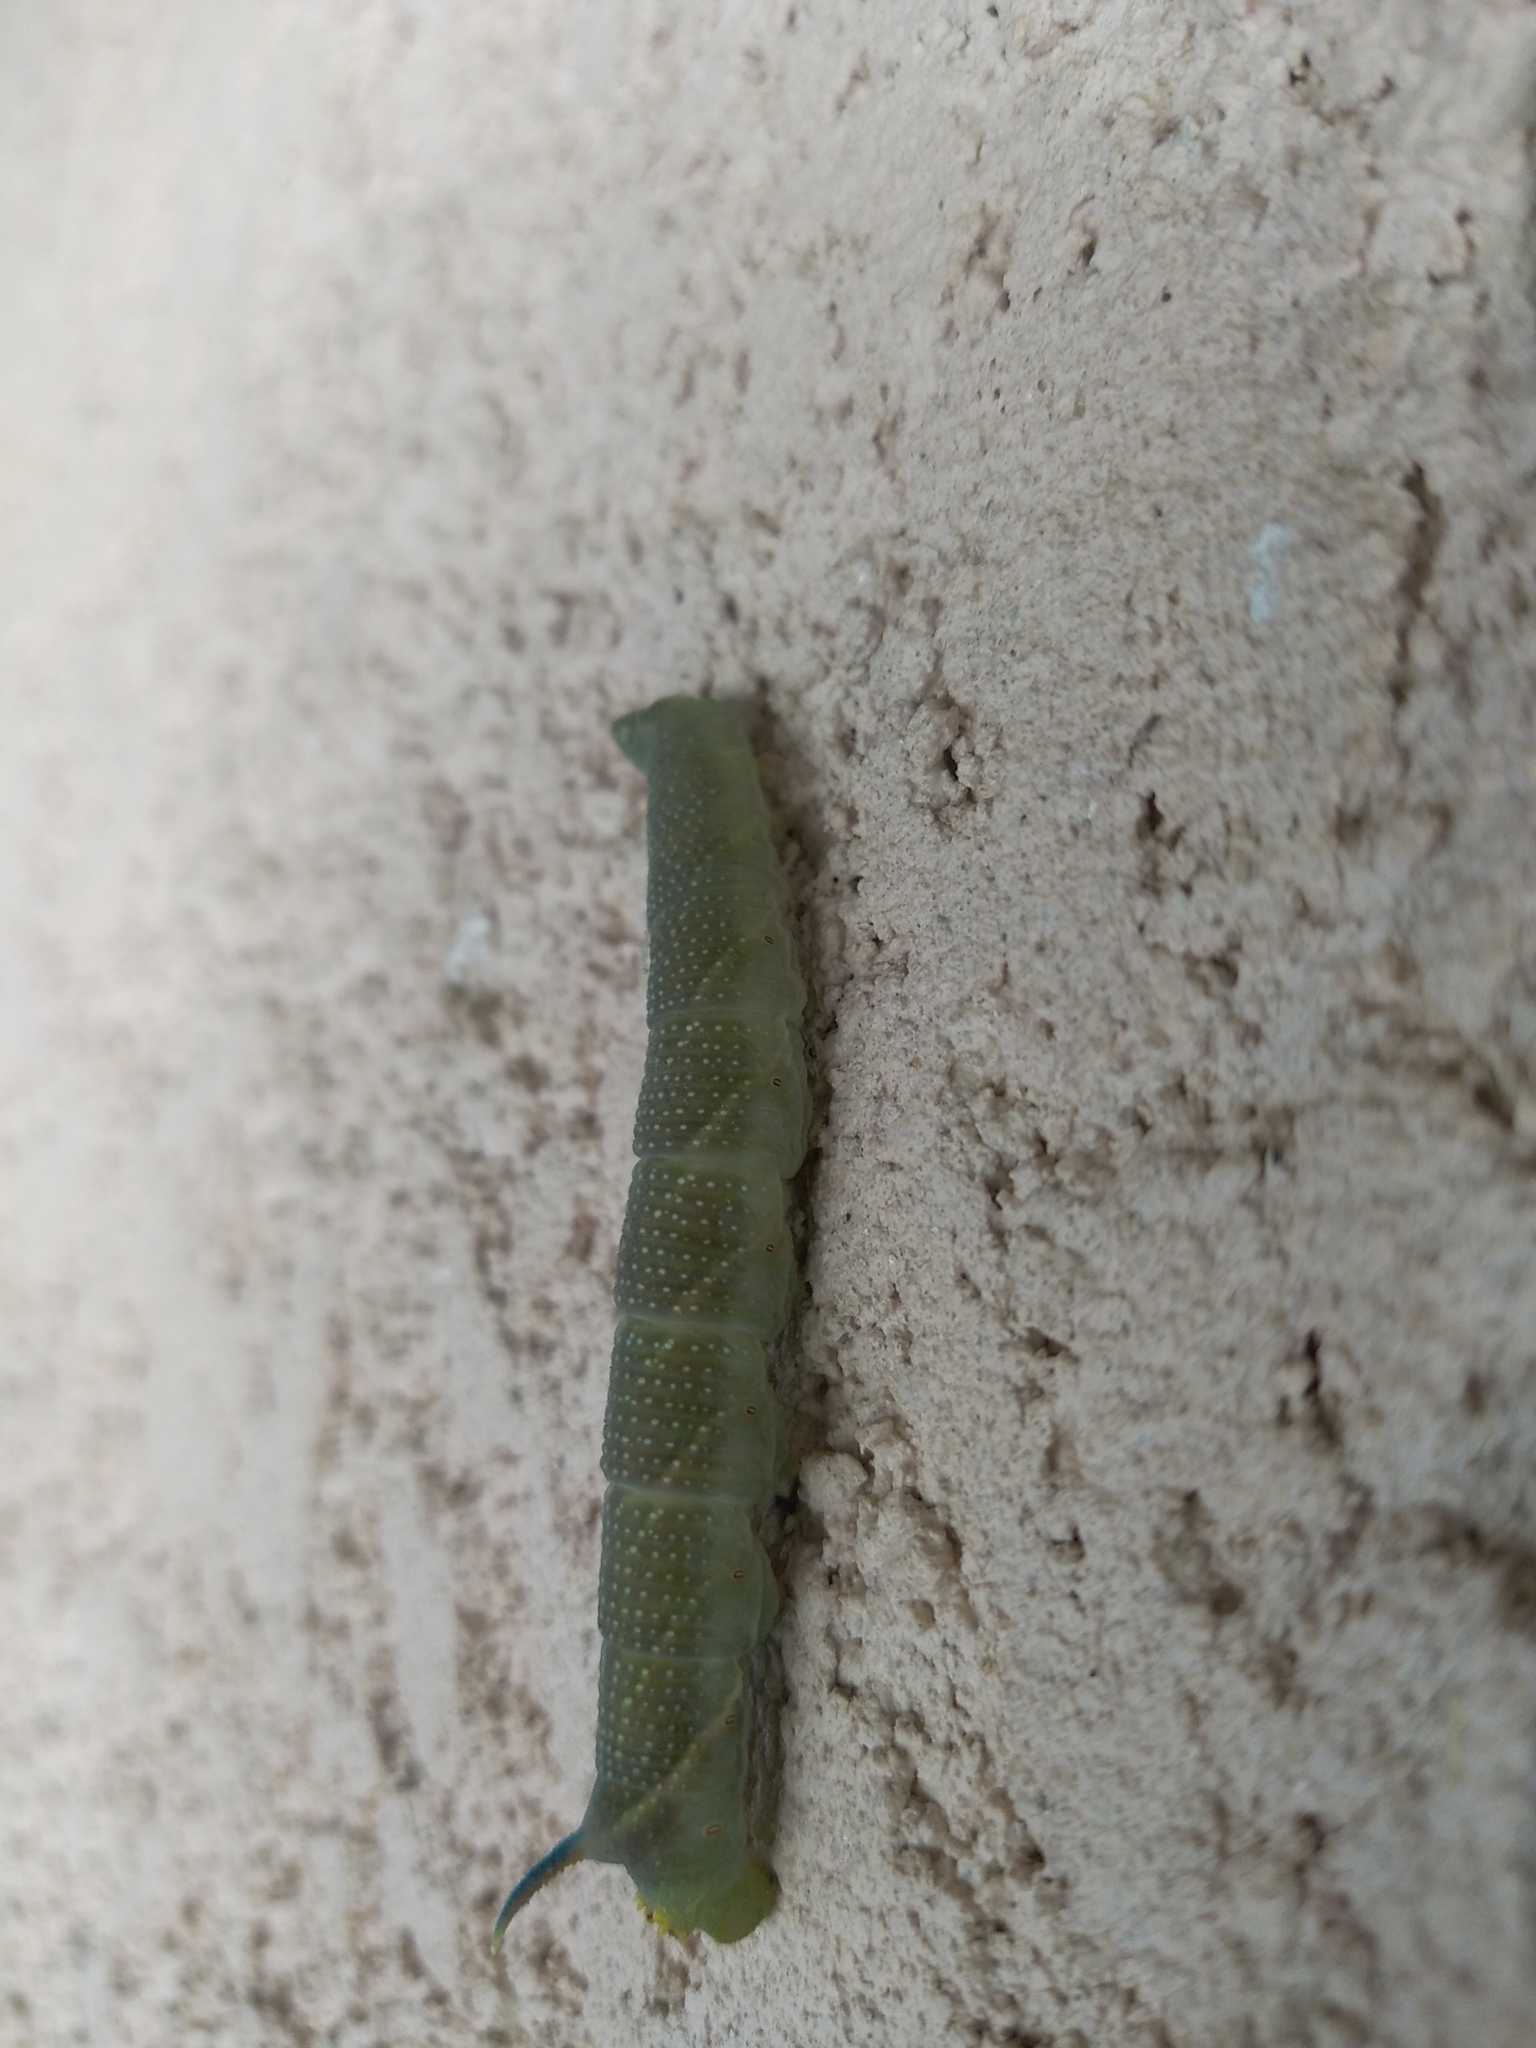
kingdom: Animalia
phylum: Arthropoda
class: Insecta
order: Lepidoptera
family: Sphingidae
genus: Mimas
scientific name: Mimas tiliae
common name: Lime hawk-moth
